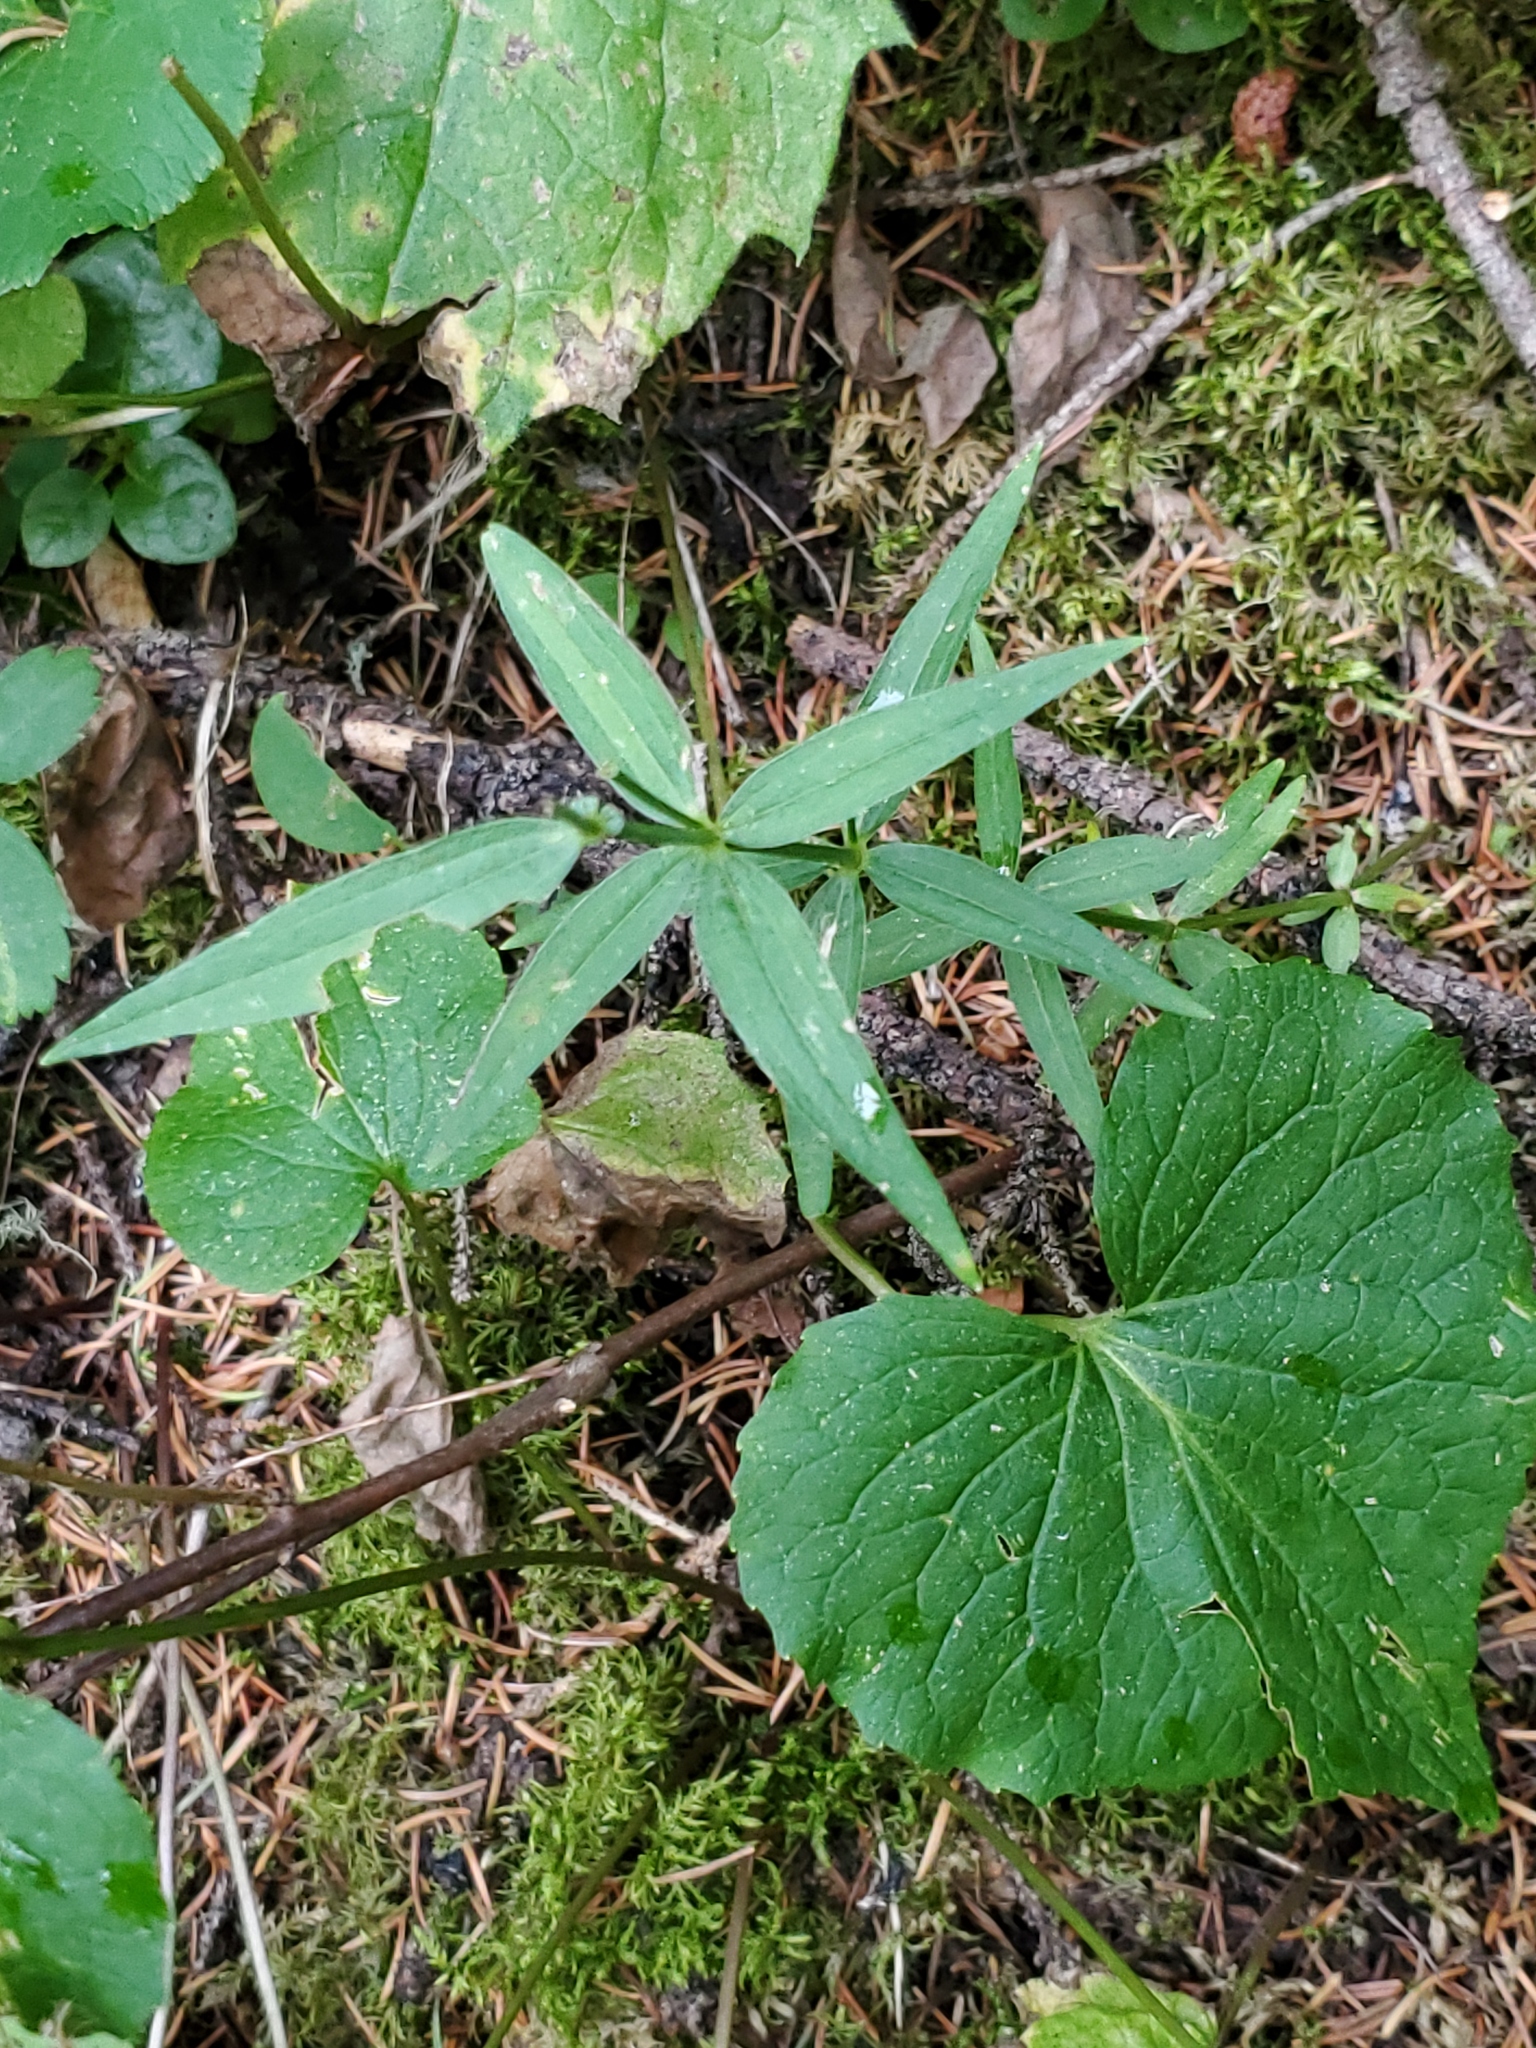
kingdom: Plantae
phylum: Tracheophyta
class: Magnoliopsida
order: Gentianales
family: Rubiaceae
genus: Galium
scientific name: Galium boreale
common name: Northern bedstraw
